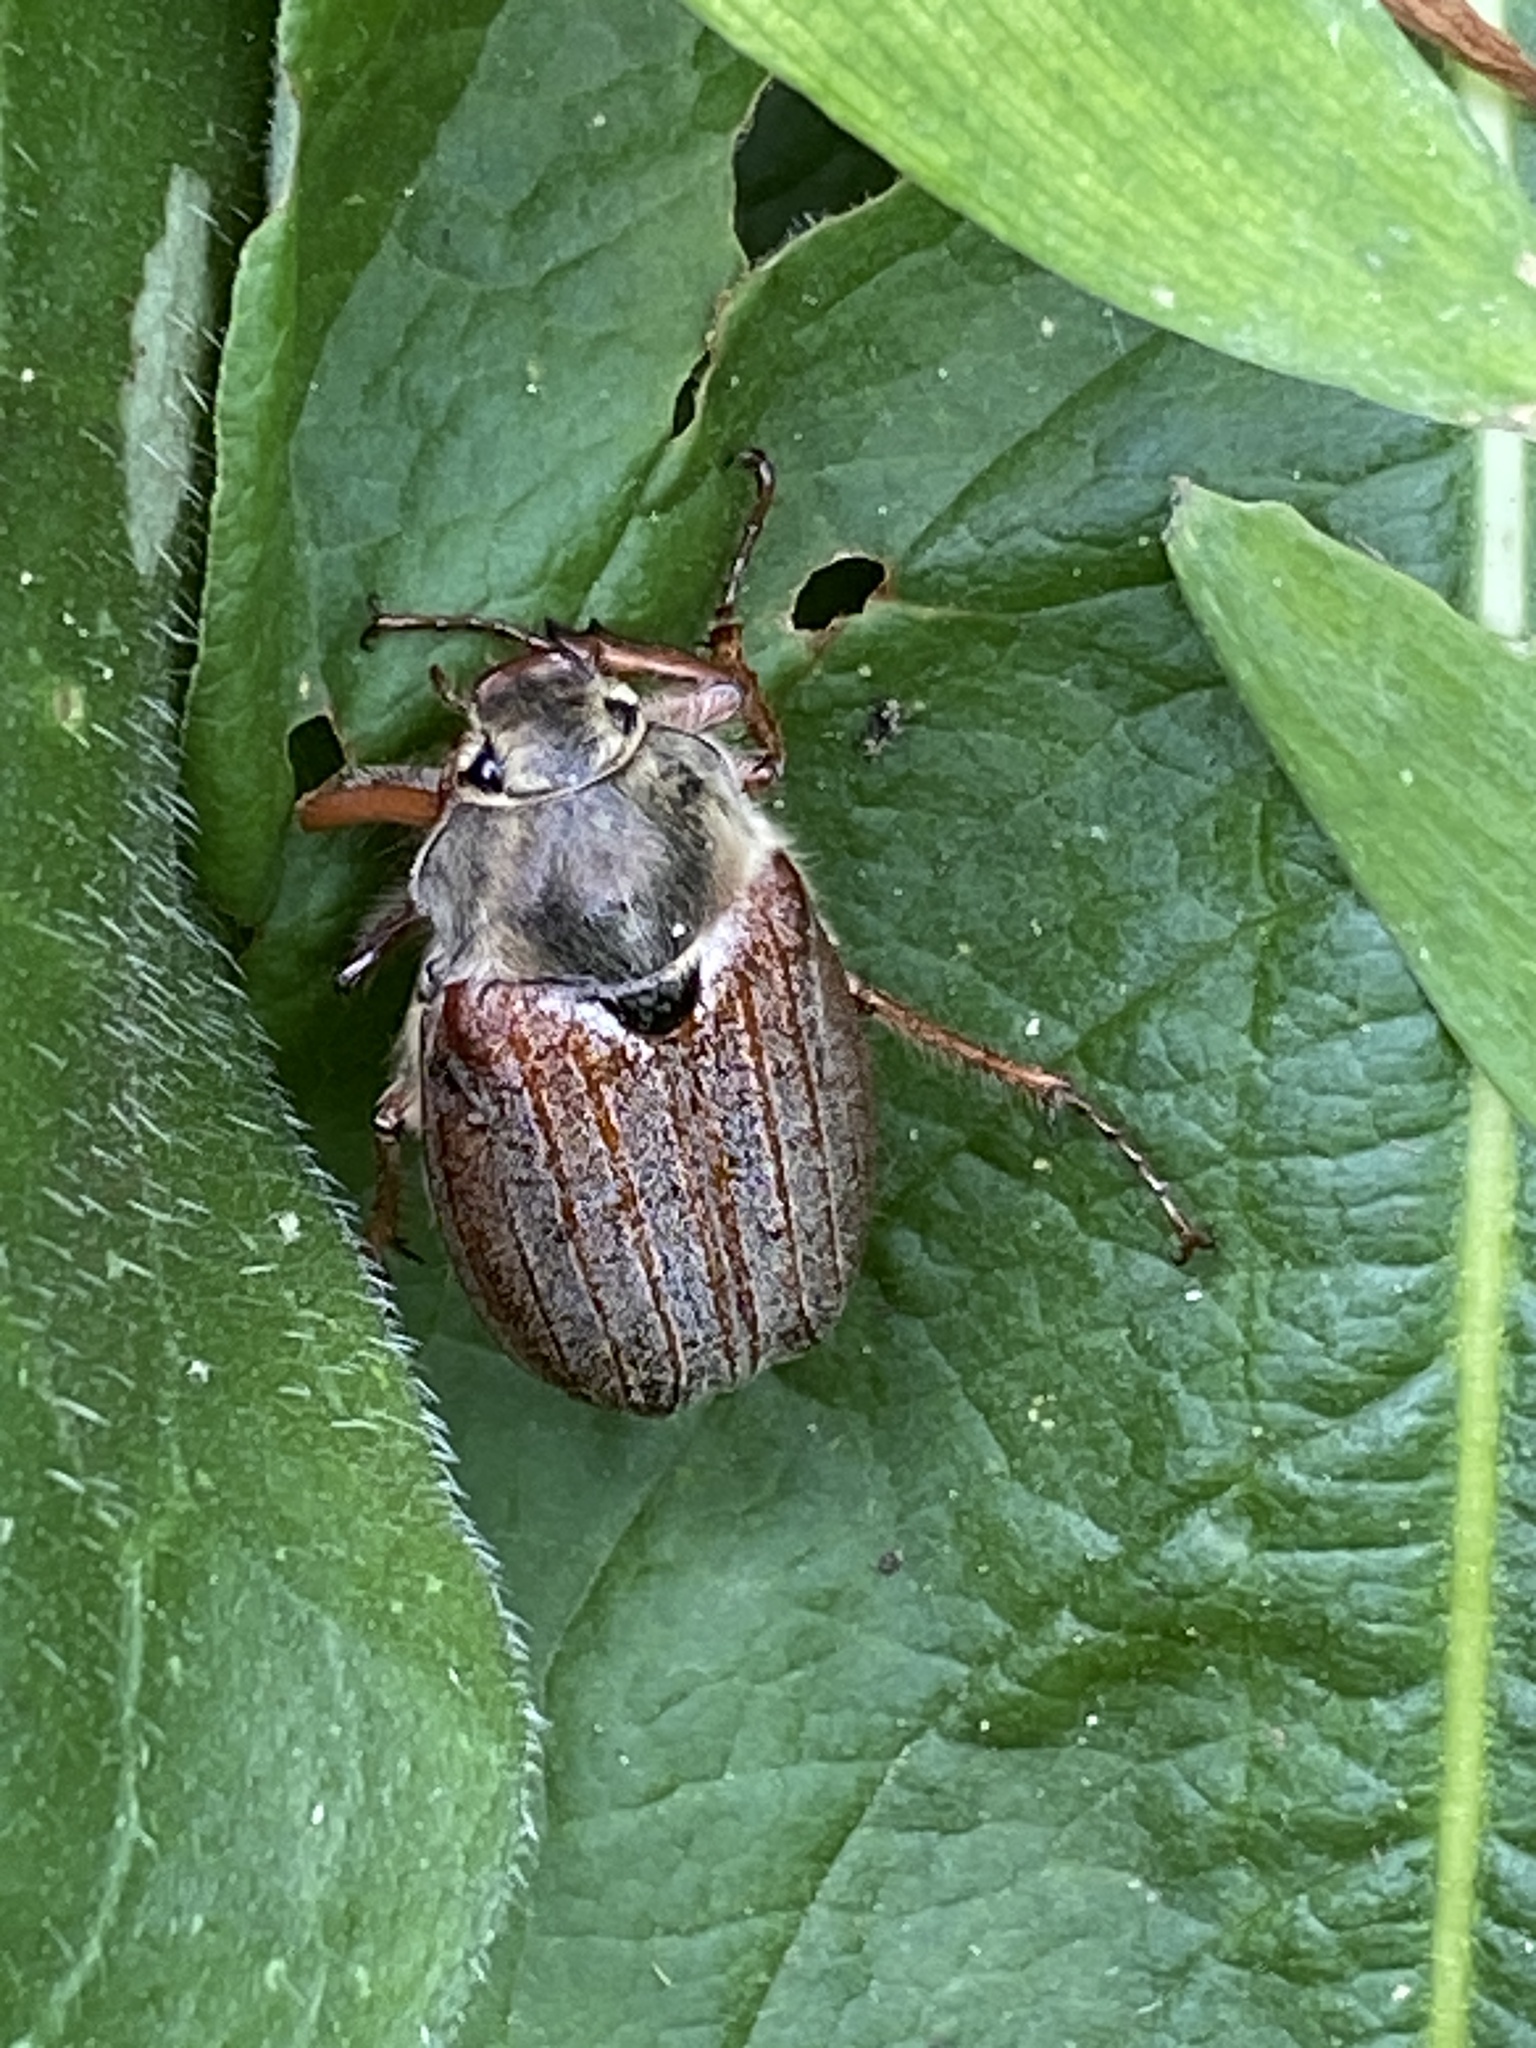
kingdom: Animalia
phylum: Arthropoda
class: Insecta
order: Coleoptera
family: Scarabaeidae
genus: Melolontha
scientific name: Melolontha melolontha
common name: Cockchafer maybeetle
